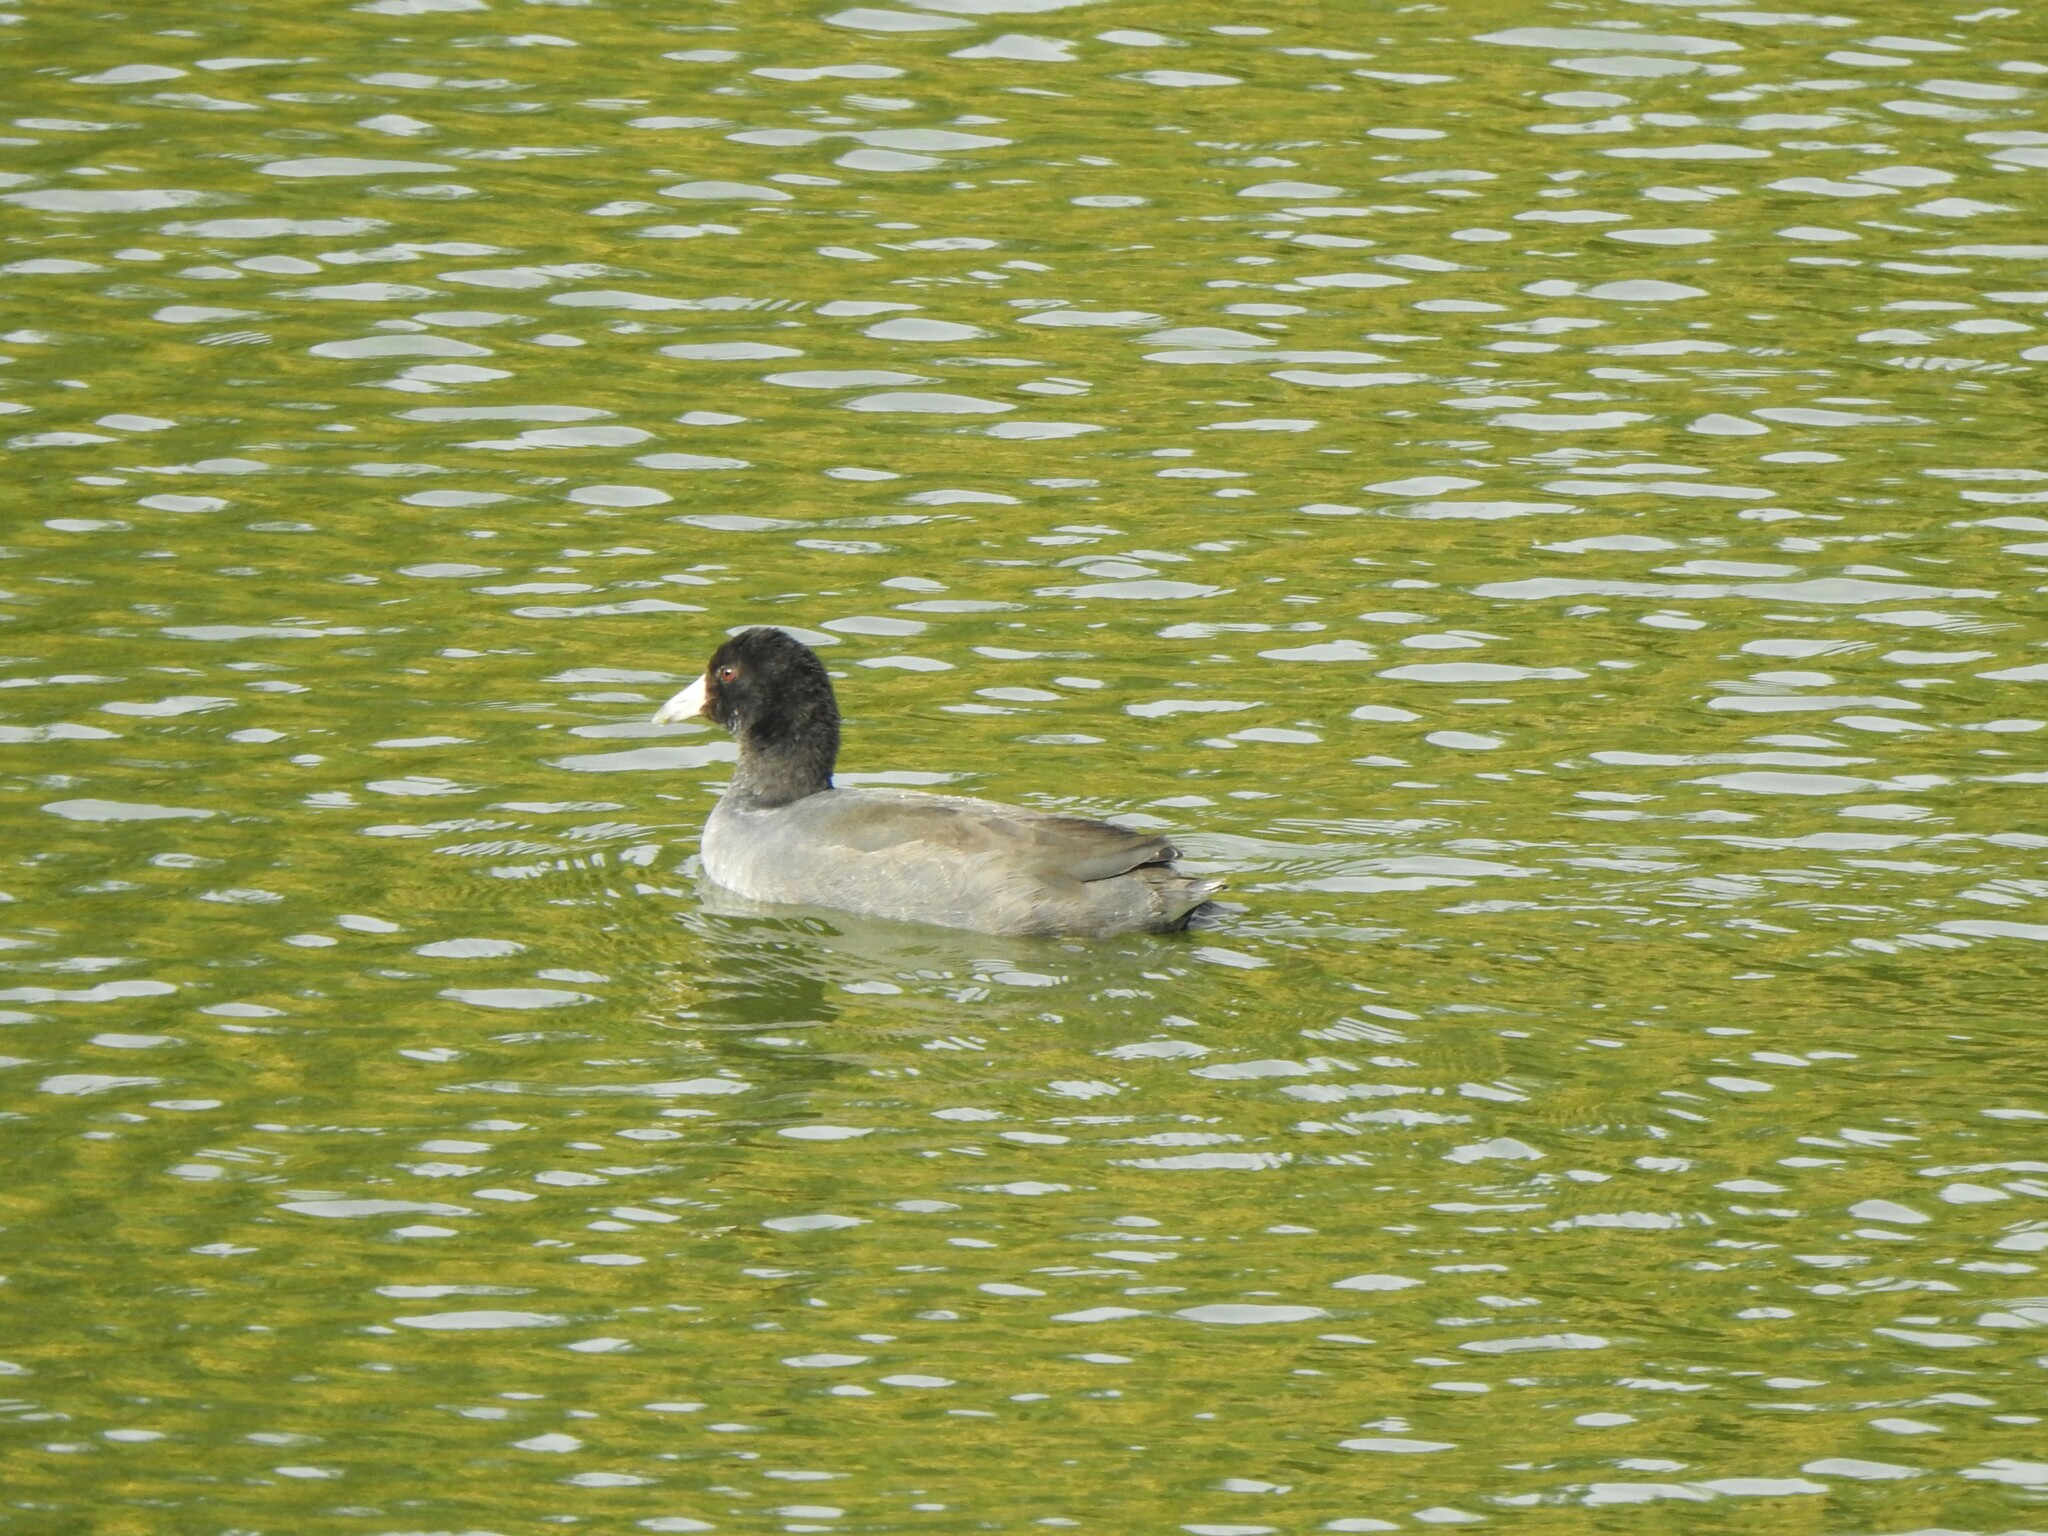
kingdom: Animalia
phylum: Chordata
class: Aves
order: Gruiformes
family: Rallidae
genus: Fulica
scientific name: Fulica americana
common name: American coot
